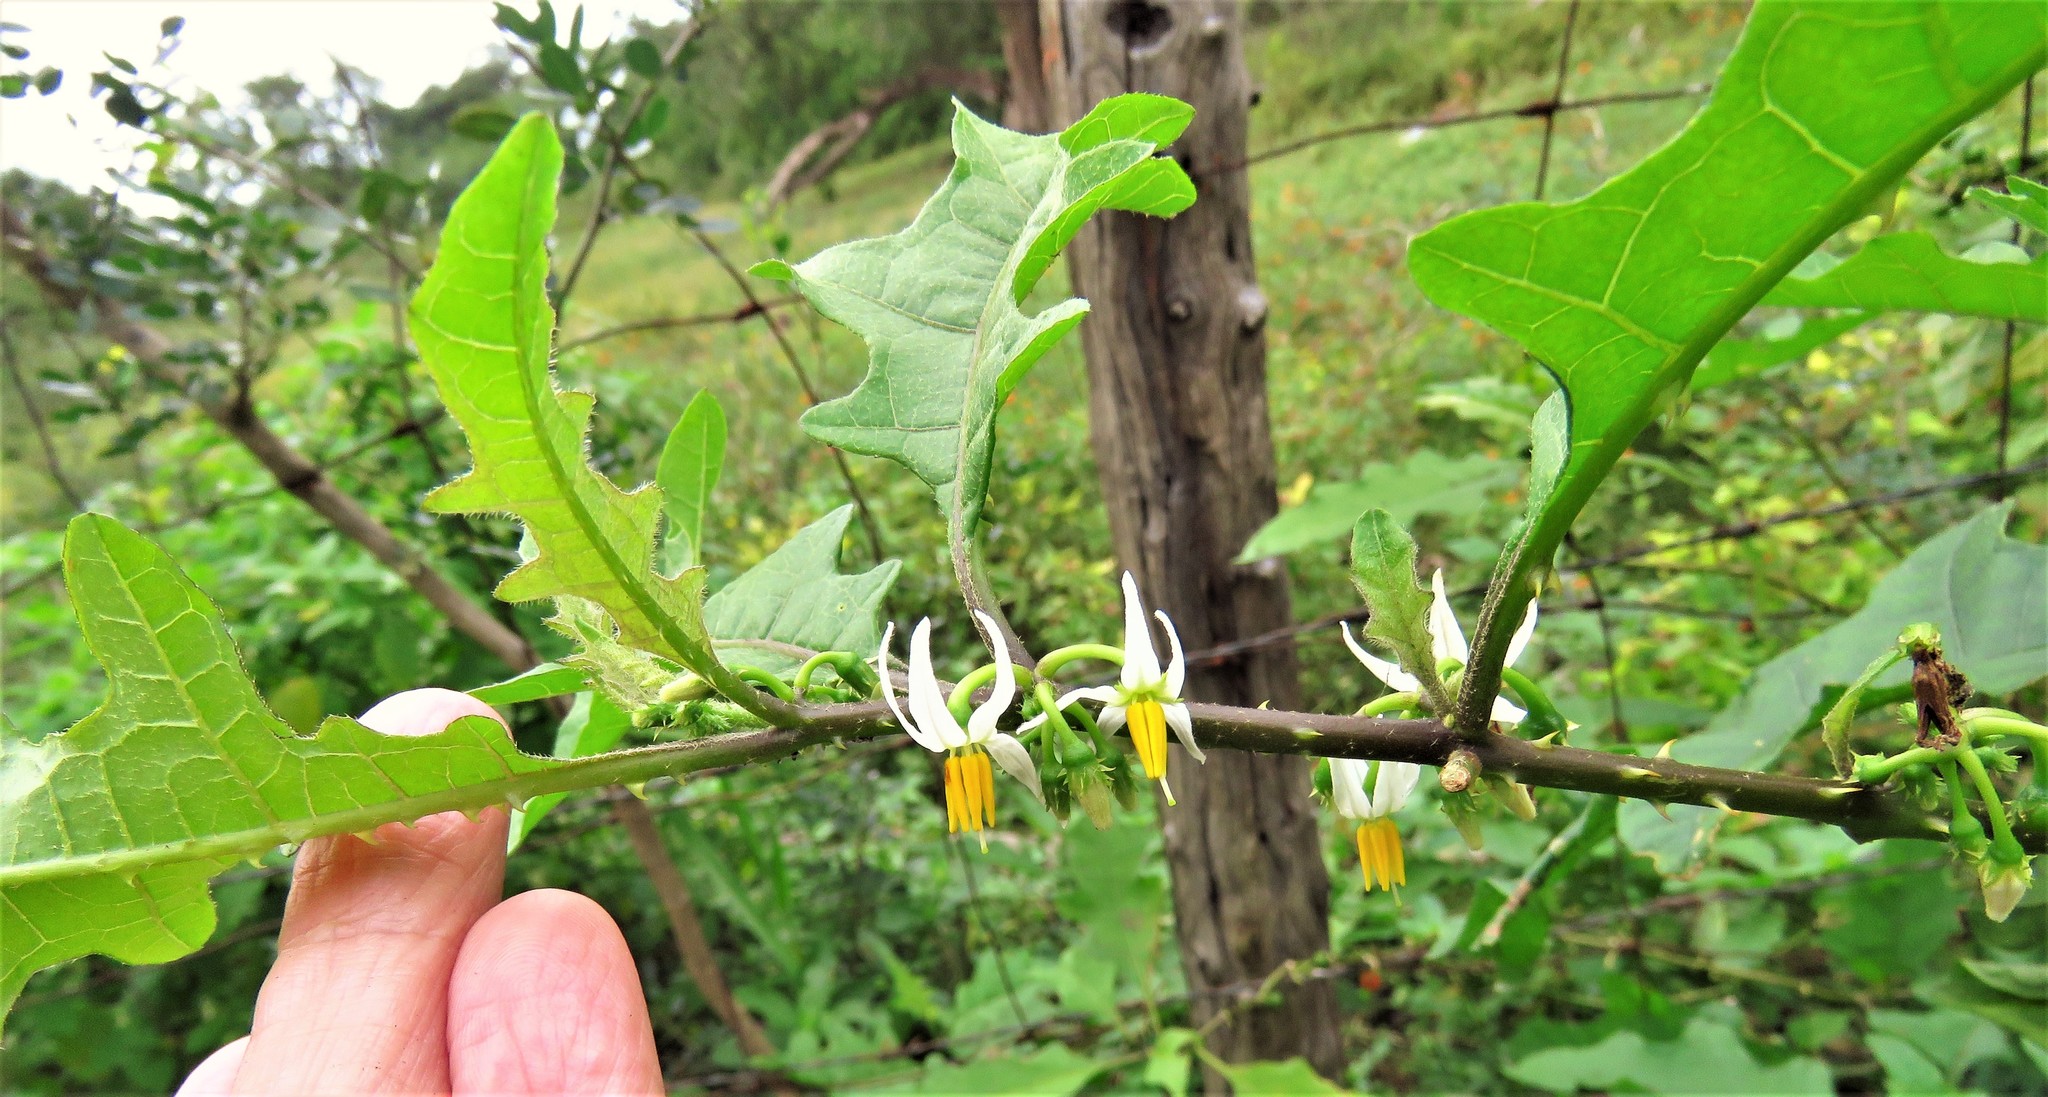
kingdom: Plantae
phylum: Tracheophyta
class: Magnoliopsida
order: Solanales
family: Solanaceae
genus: Solanum
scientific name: Solanum tampicense
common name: Scrambling nightshade
